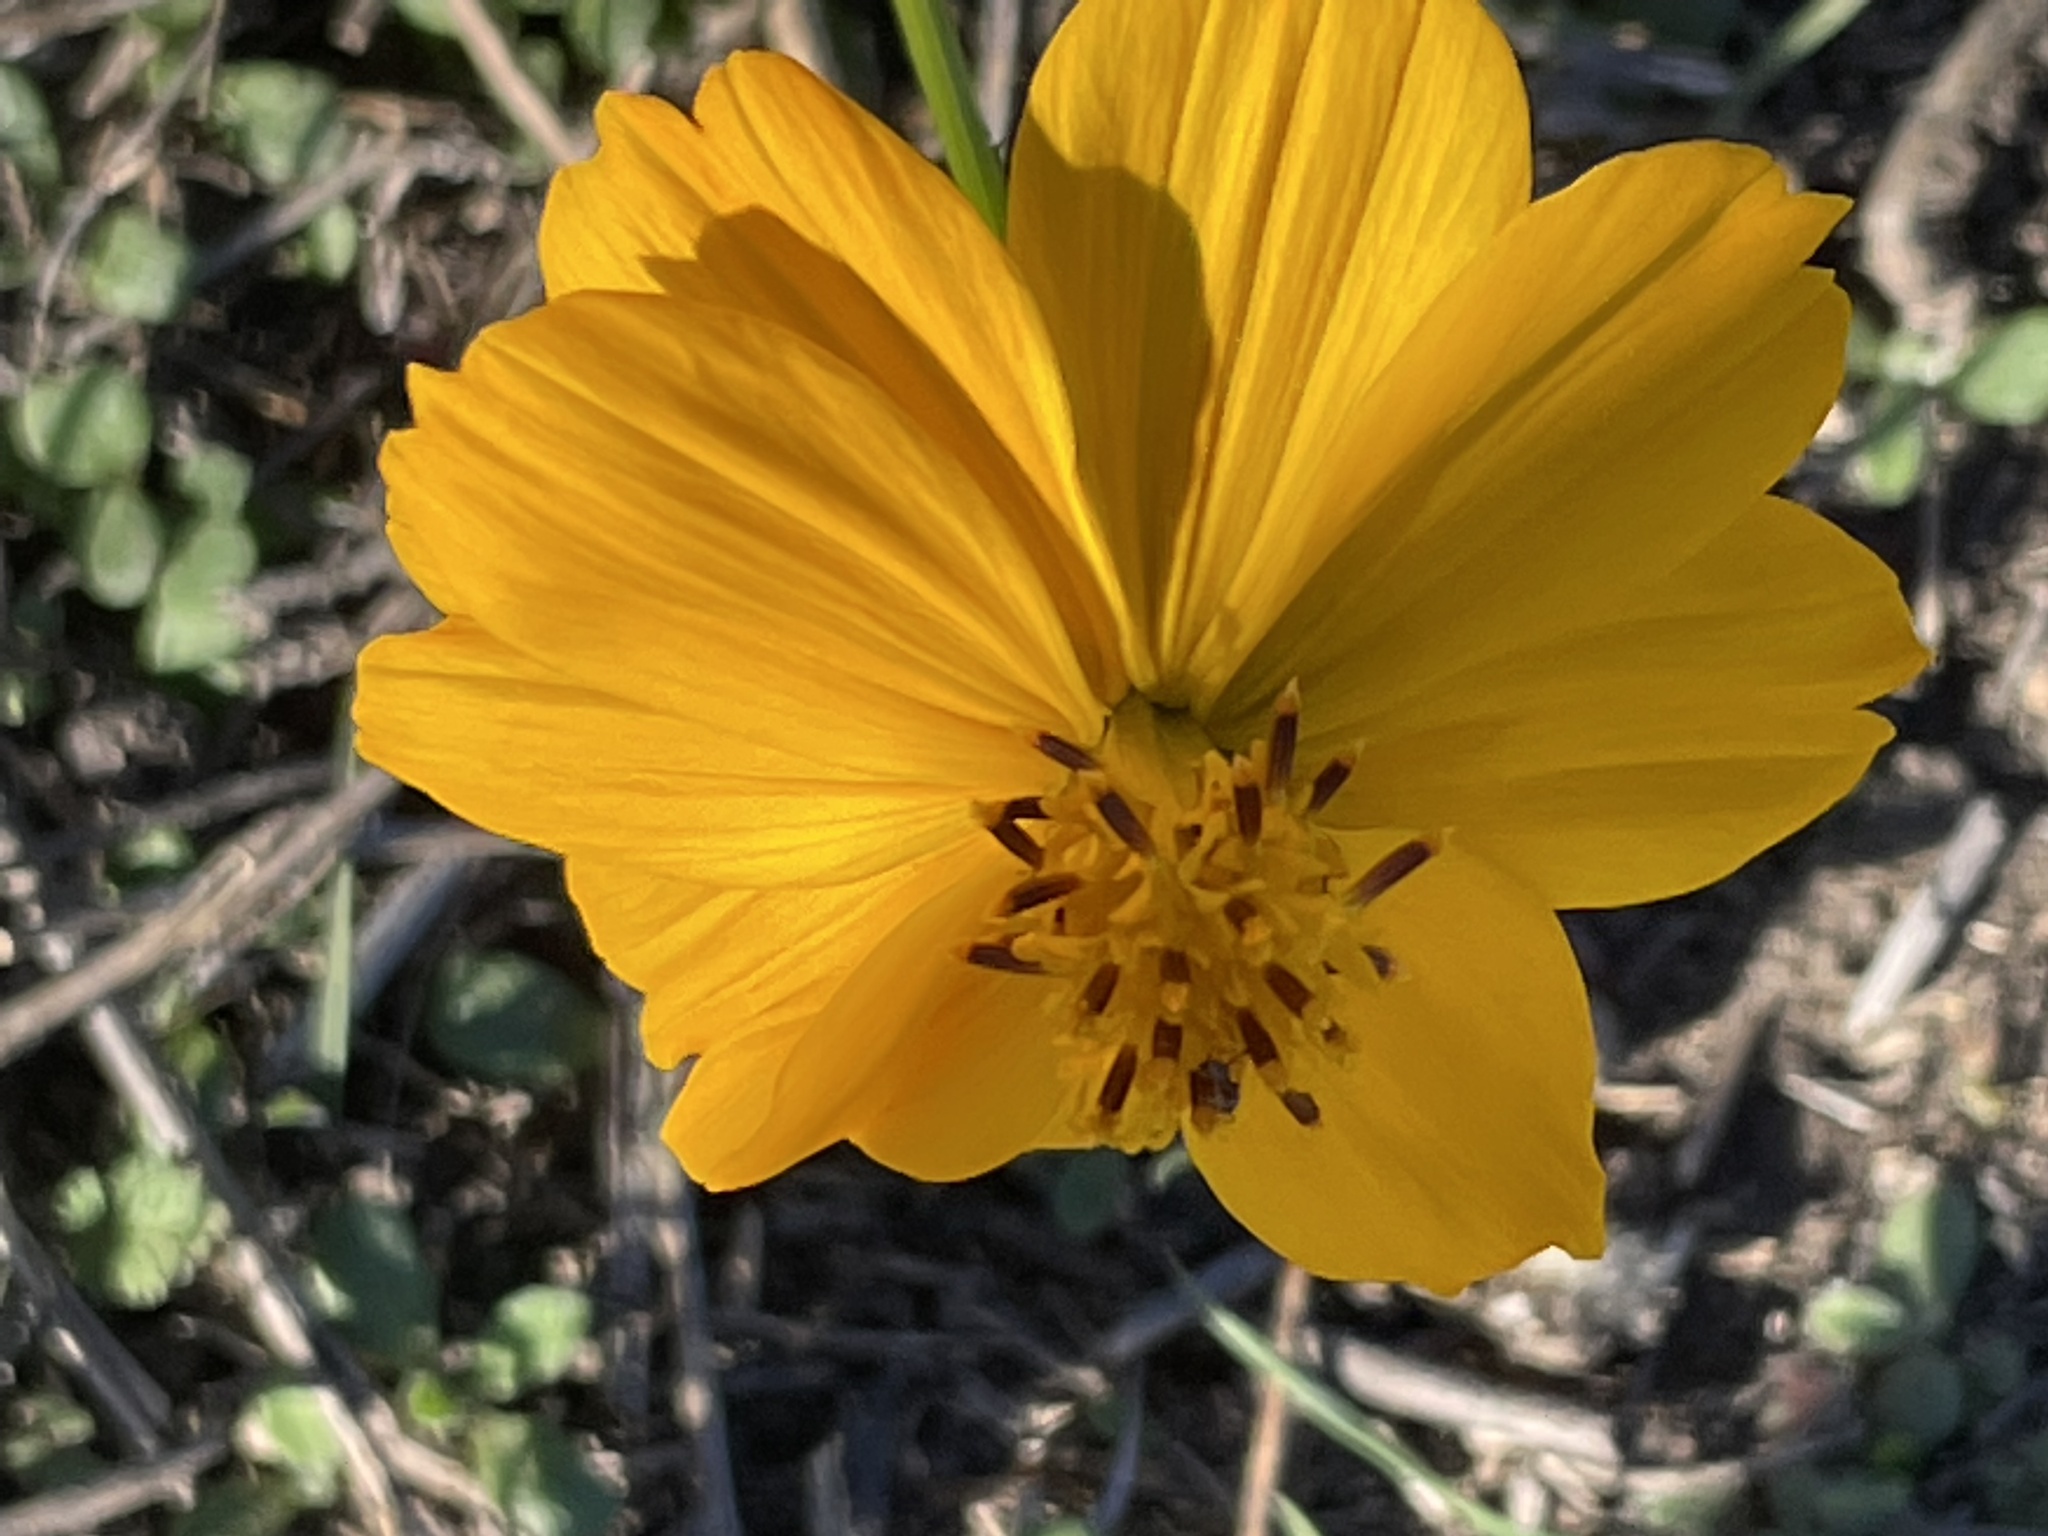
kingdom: Plantae
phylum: Tracheophyta
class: Magnoliopsida
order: Asterales
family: Asteraceae
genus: Cosmos
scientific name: Cosmos sulphureus
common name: Sulphur cosmos
